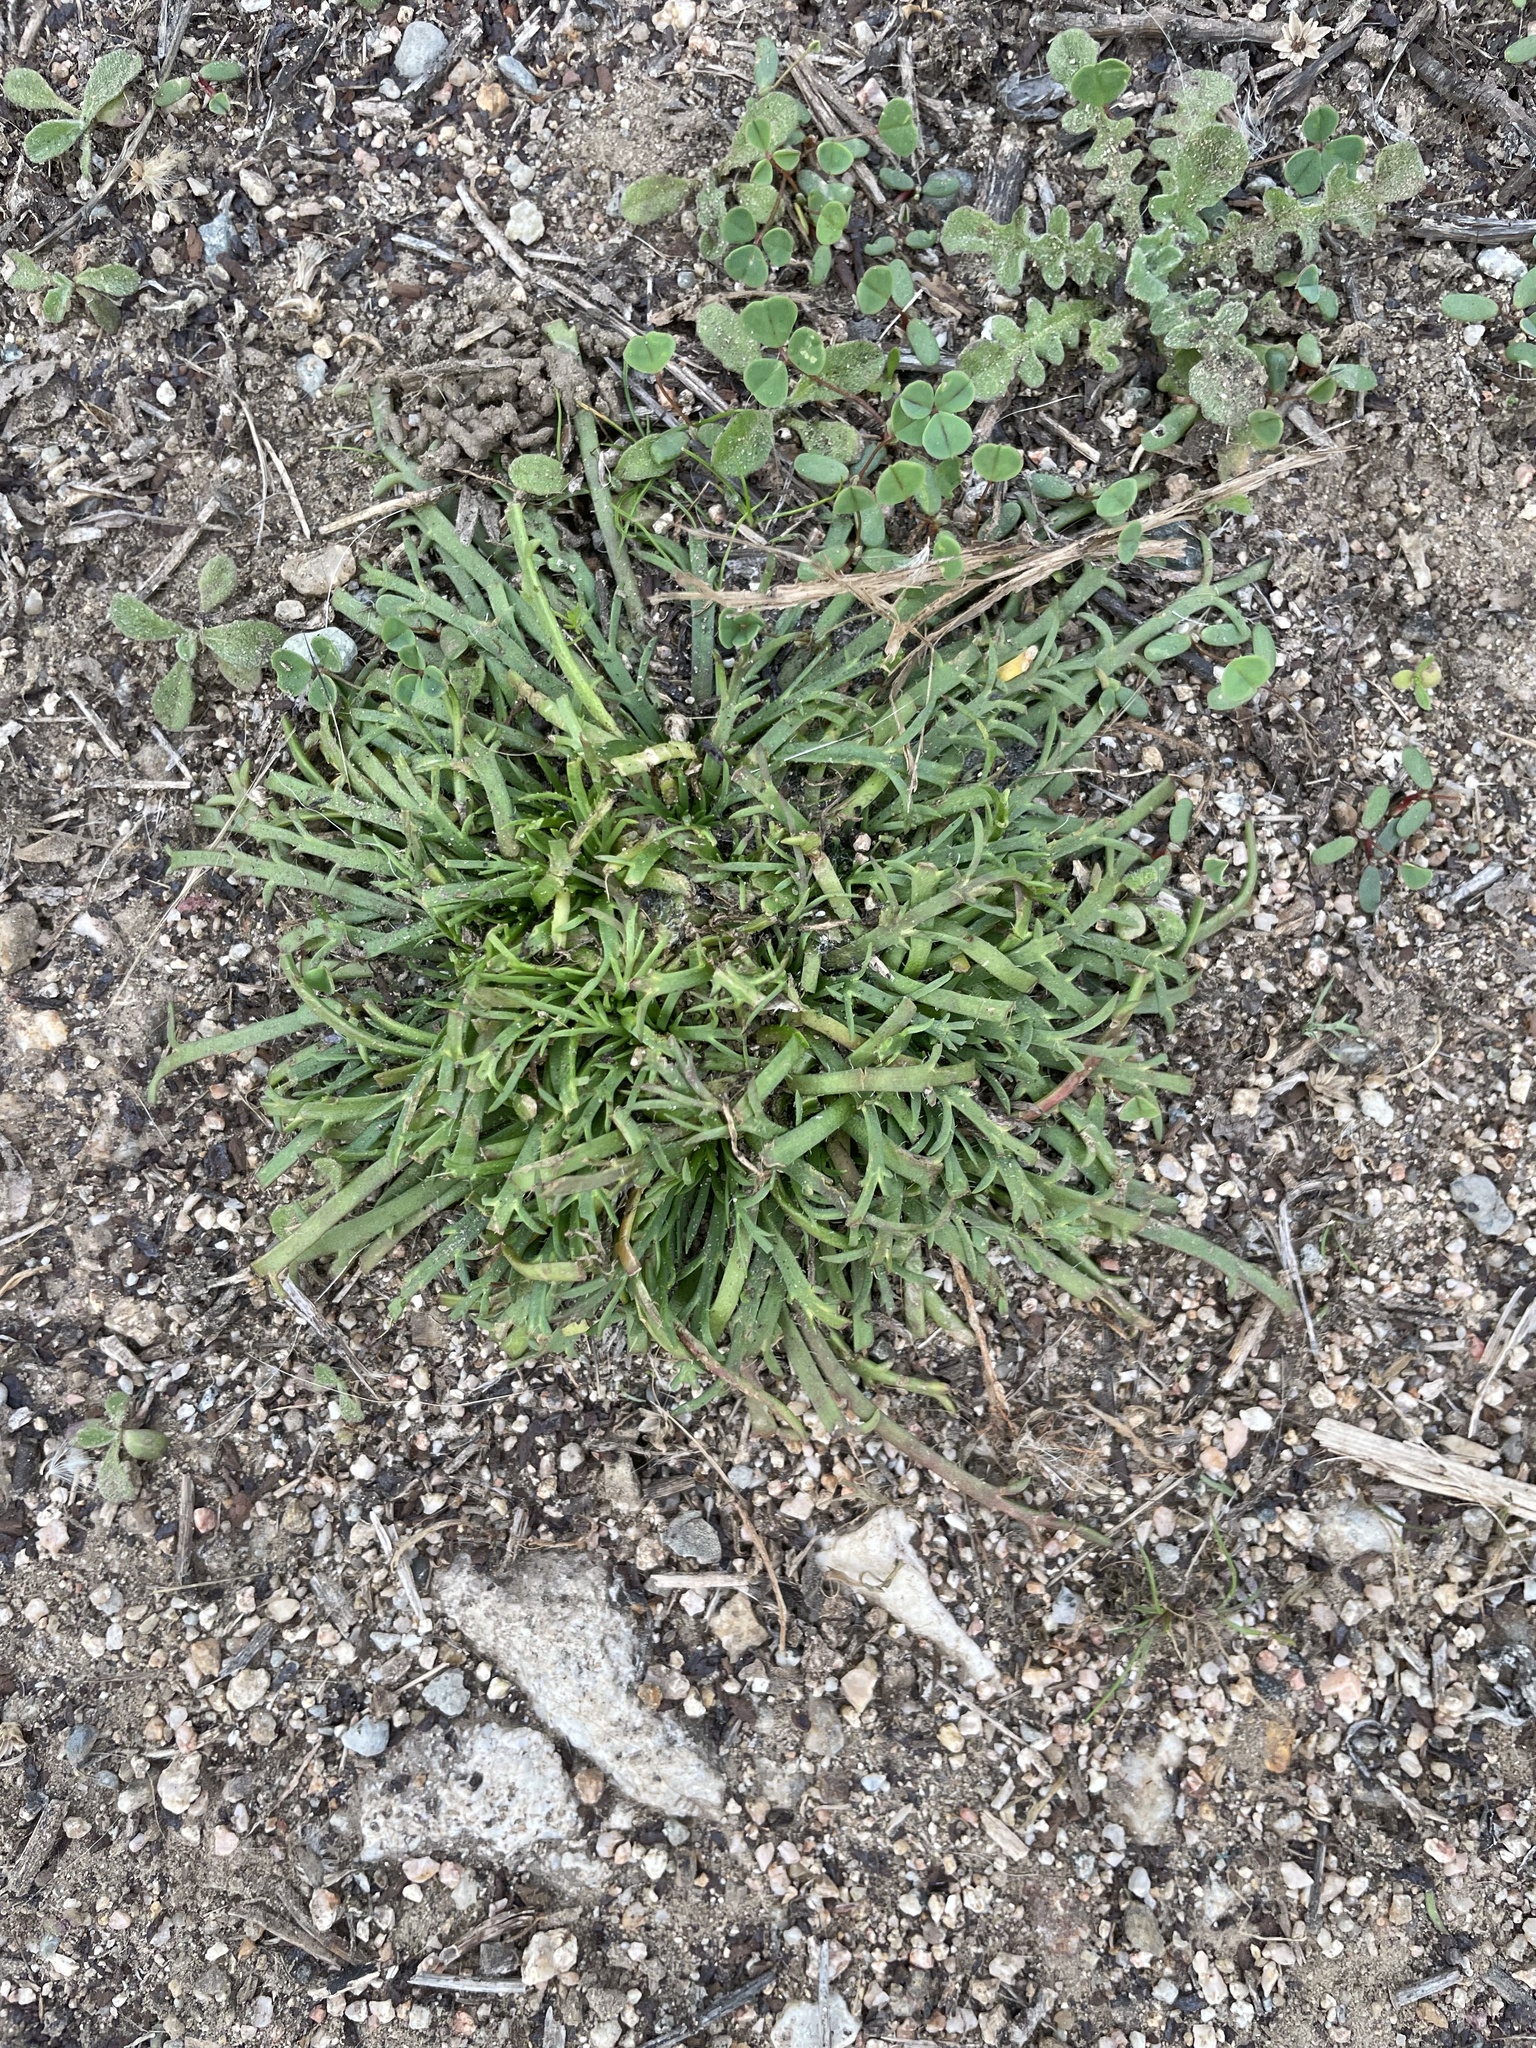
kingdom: Plantae
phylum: Tracheophyta
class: Magnoliopsida
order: Lamiales
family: Plantaginaceae
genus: Plantago
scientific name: Plantago coronopus
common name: Buck's-horn plantain
